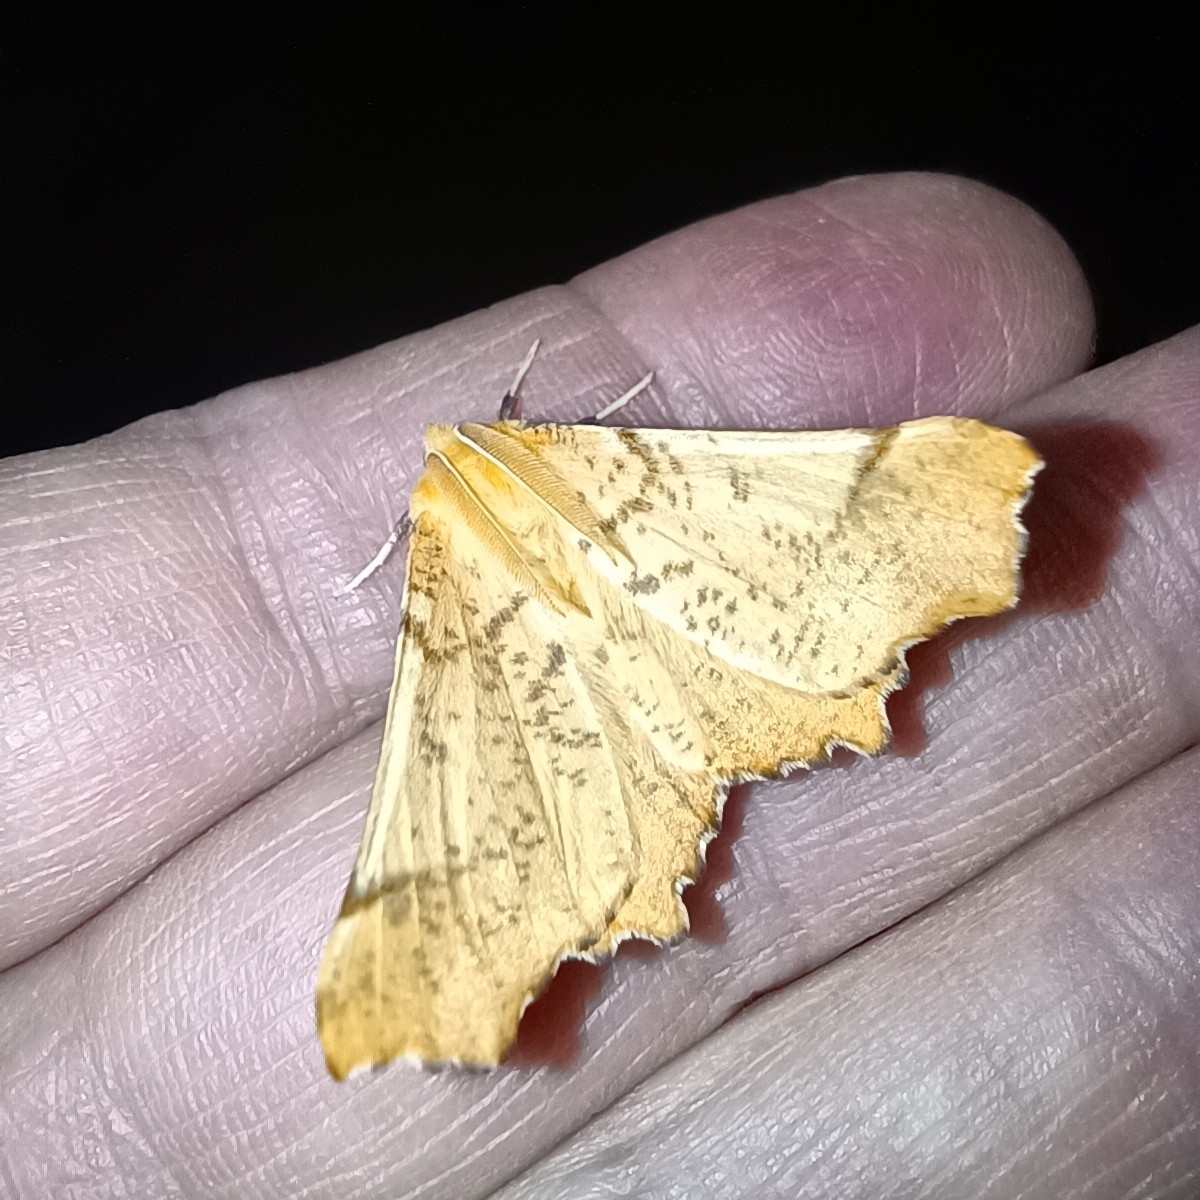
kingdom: Animalia
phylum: Arthropoda
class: Insecta
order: Lepidoptera
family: Geometridae
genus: Ennomos
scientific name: Ennomos autumnaria
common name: Large thorn
